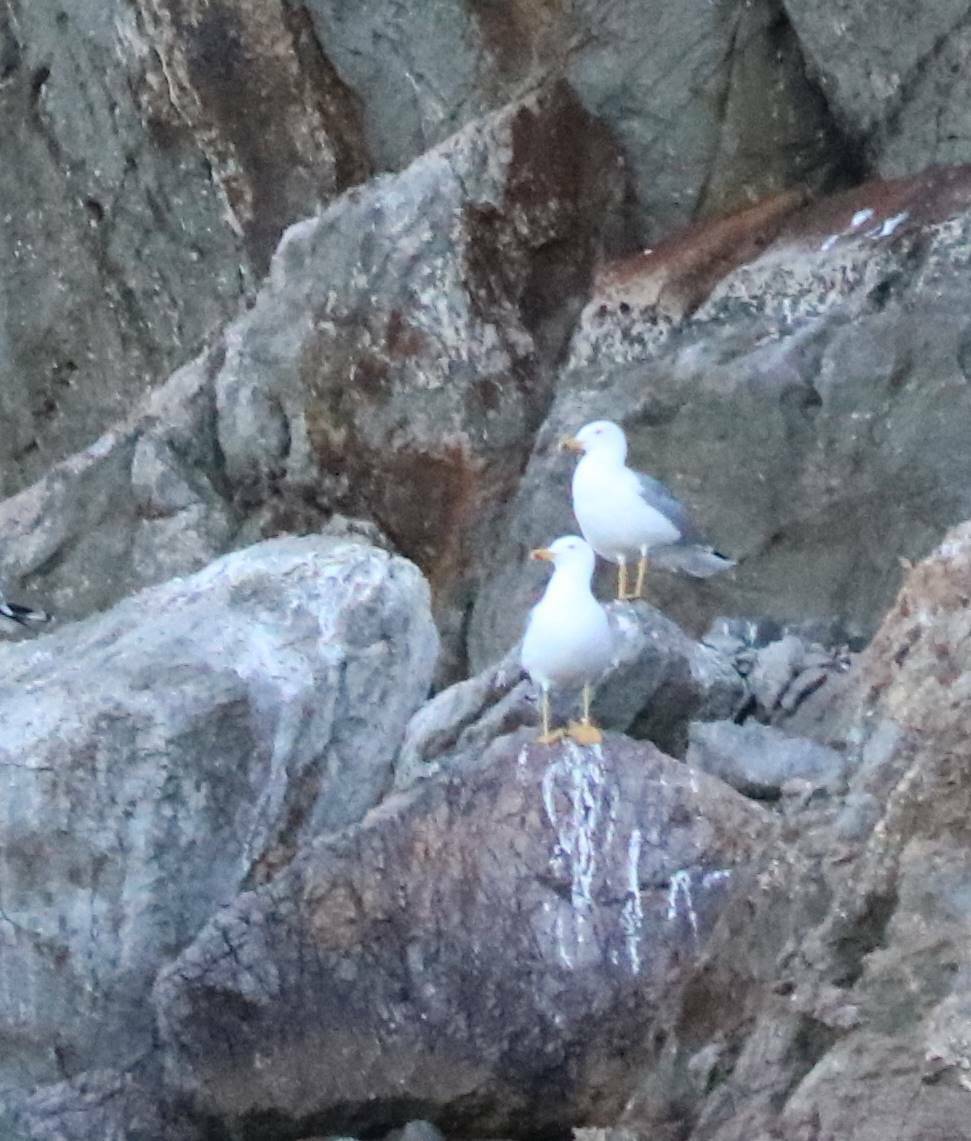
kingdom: Animalia
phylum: Chordata
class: Aves
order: Charadriiformes
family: Laridae
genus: Larus
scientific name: Larus michahellis
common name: Yellow-legged gull
